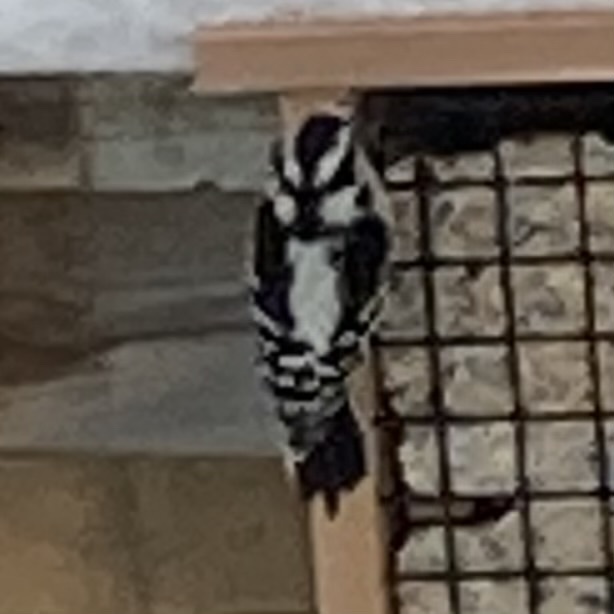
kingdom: Animalia
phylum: Chordata
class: Aves
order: Piciformes
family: Picidae
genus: Dryobates
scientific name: Dryobates pubescens
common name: Downy woodpecker
